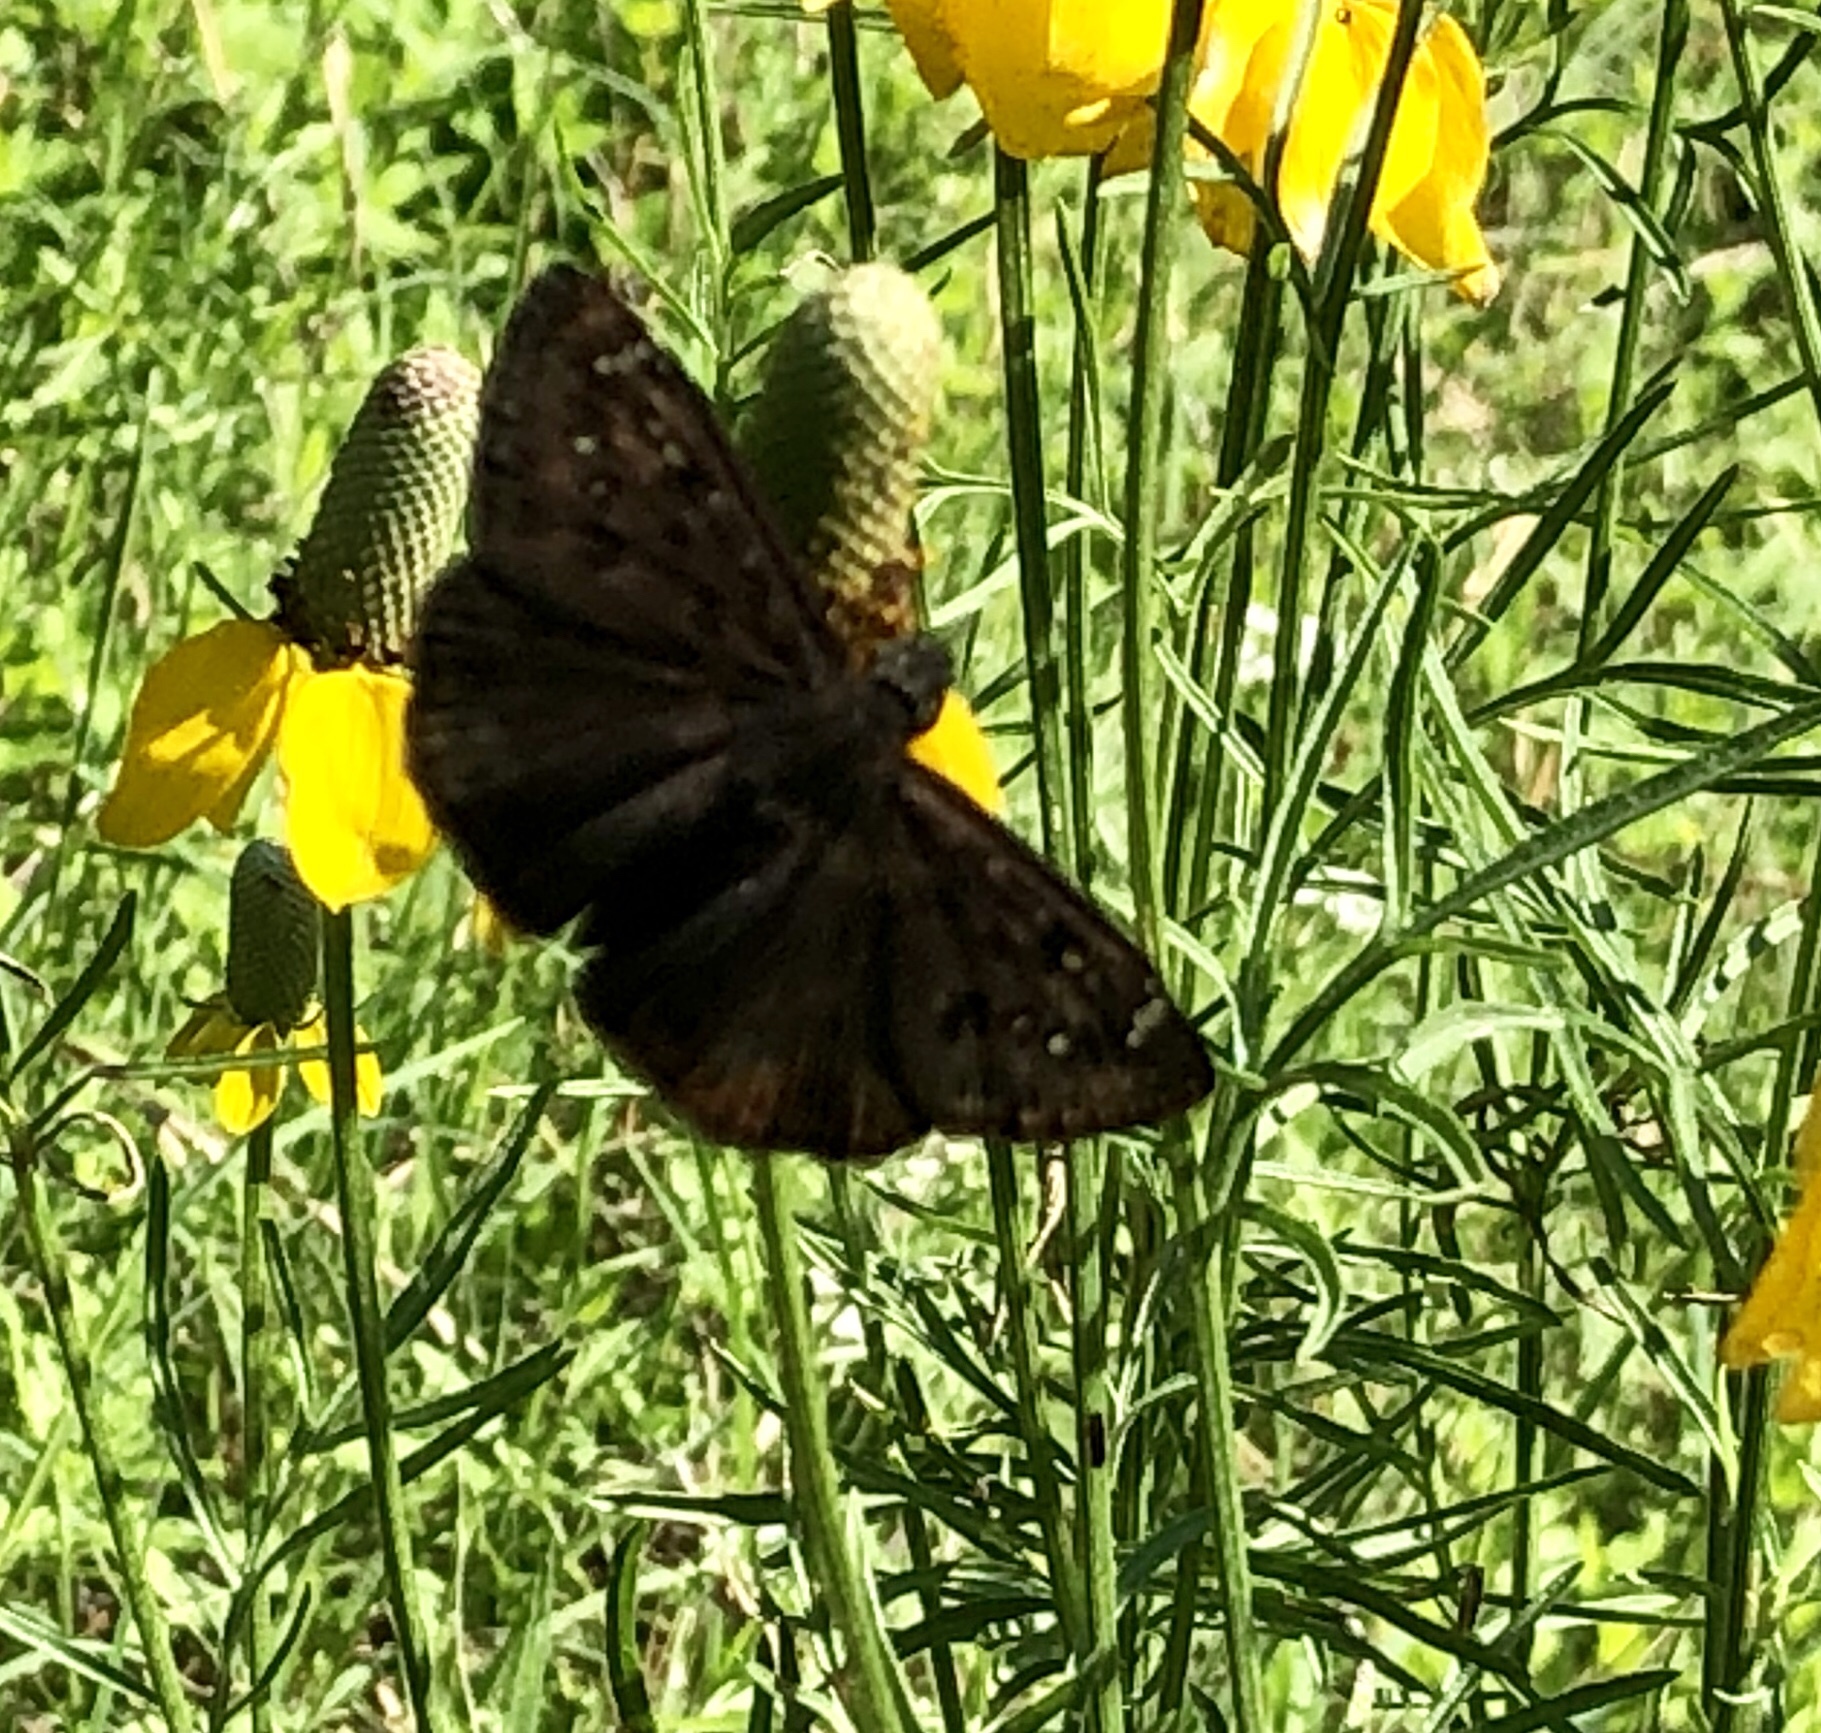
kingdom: Animalia
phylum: Arthropoda
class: Insecta
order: Lepidoptera
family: Hesperiidae
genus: Erynnis
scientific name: Erynnis horatius
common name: Horace's duskywing
